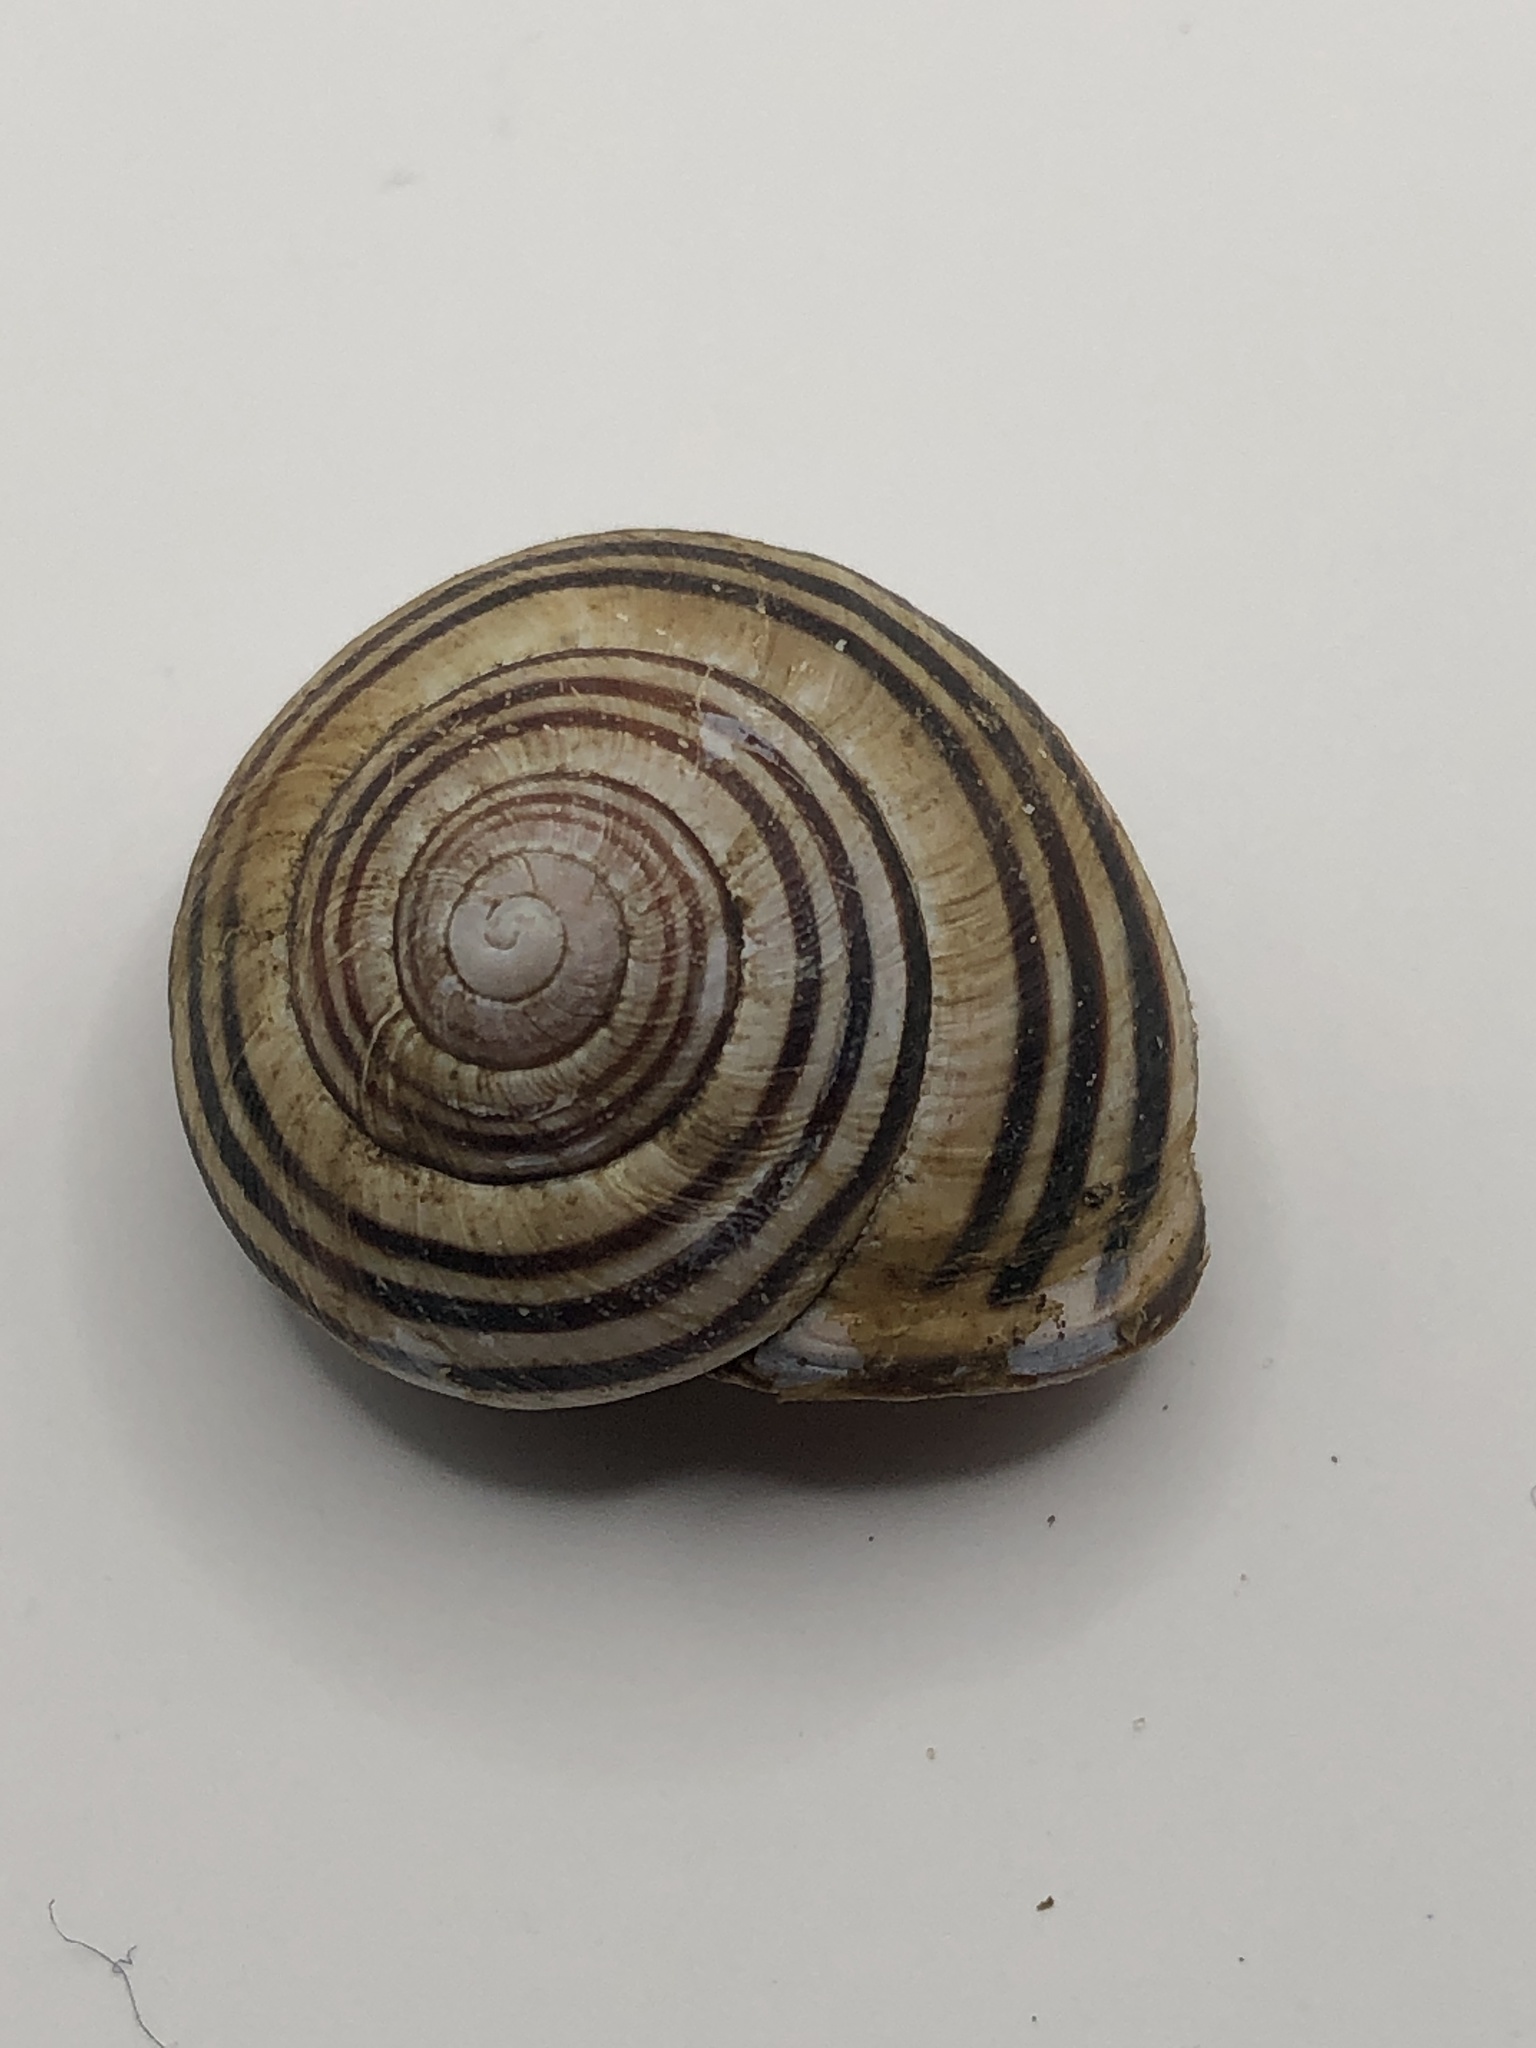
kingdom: Animalia
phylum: Mollusca
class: Gastropoda
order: Stylommatophora
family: Helicidae
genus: Cepaea
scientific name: Cepaea nemoralis
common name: Grovesnail
